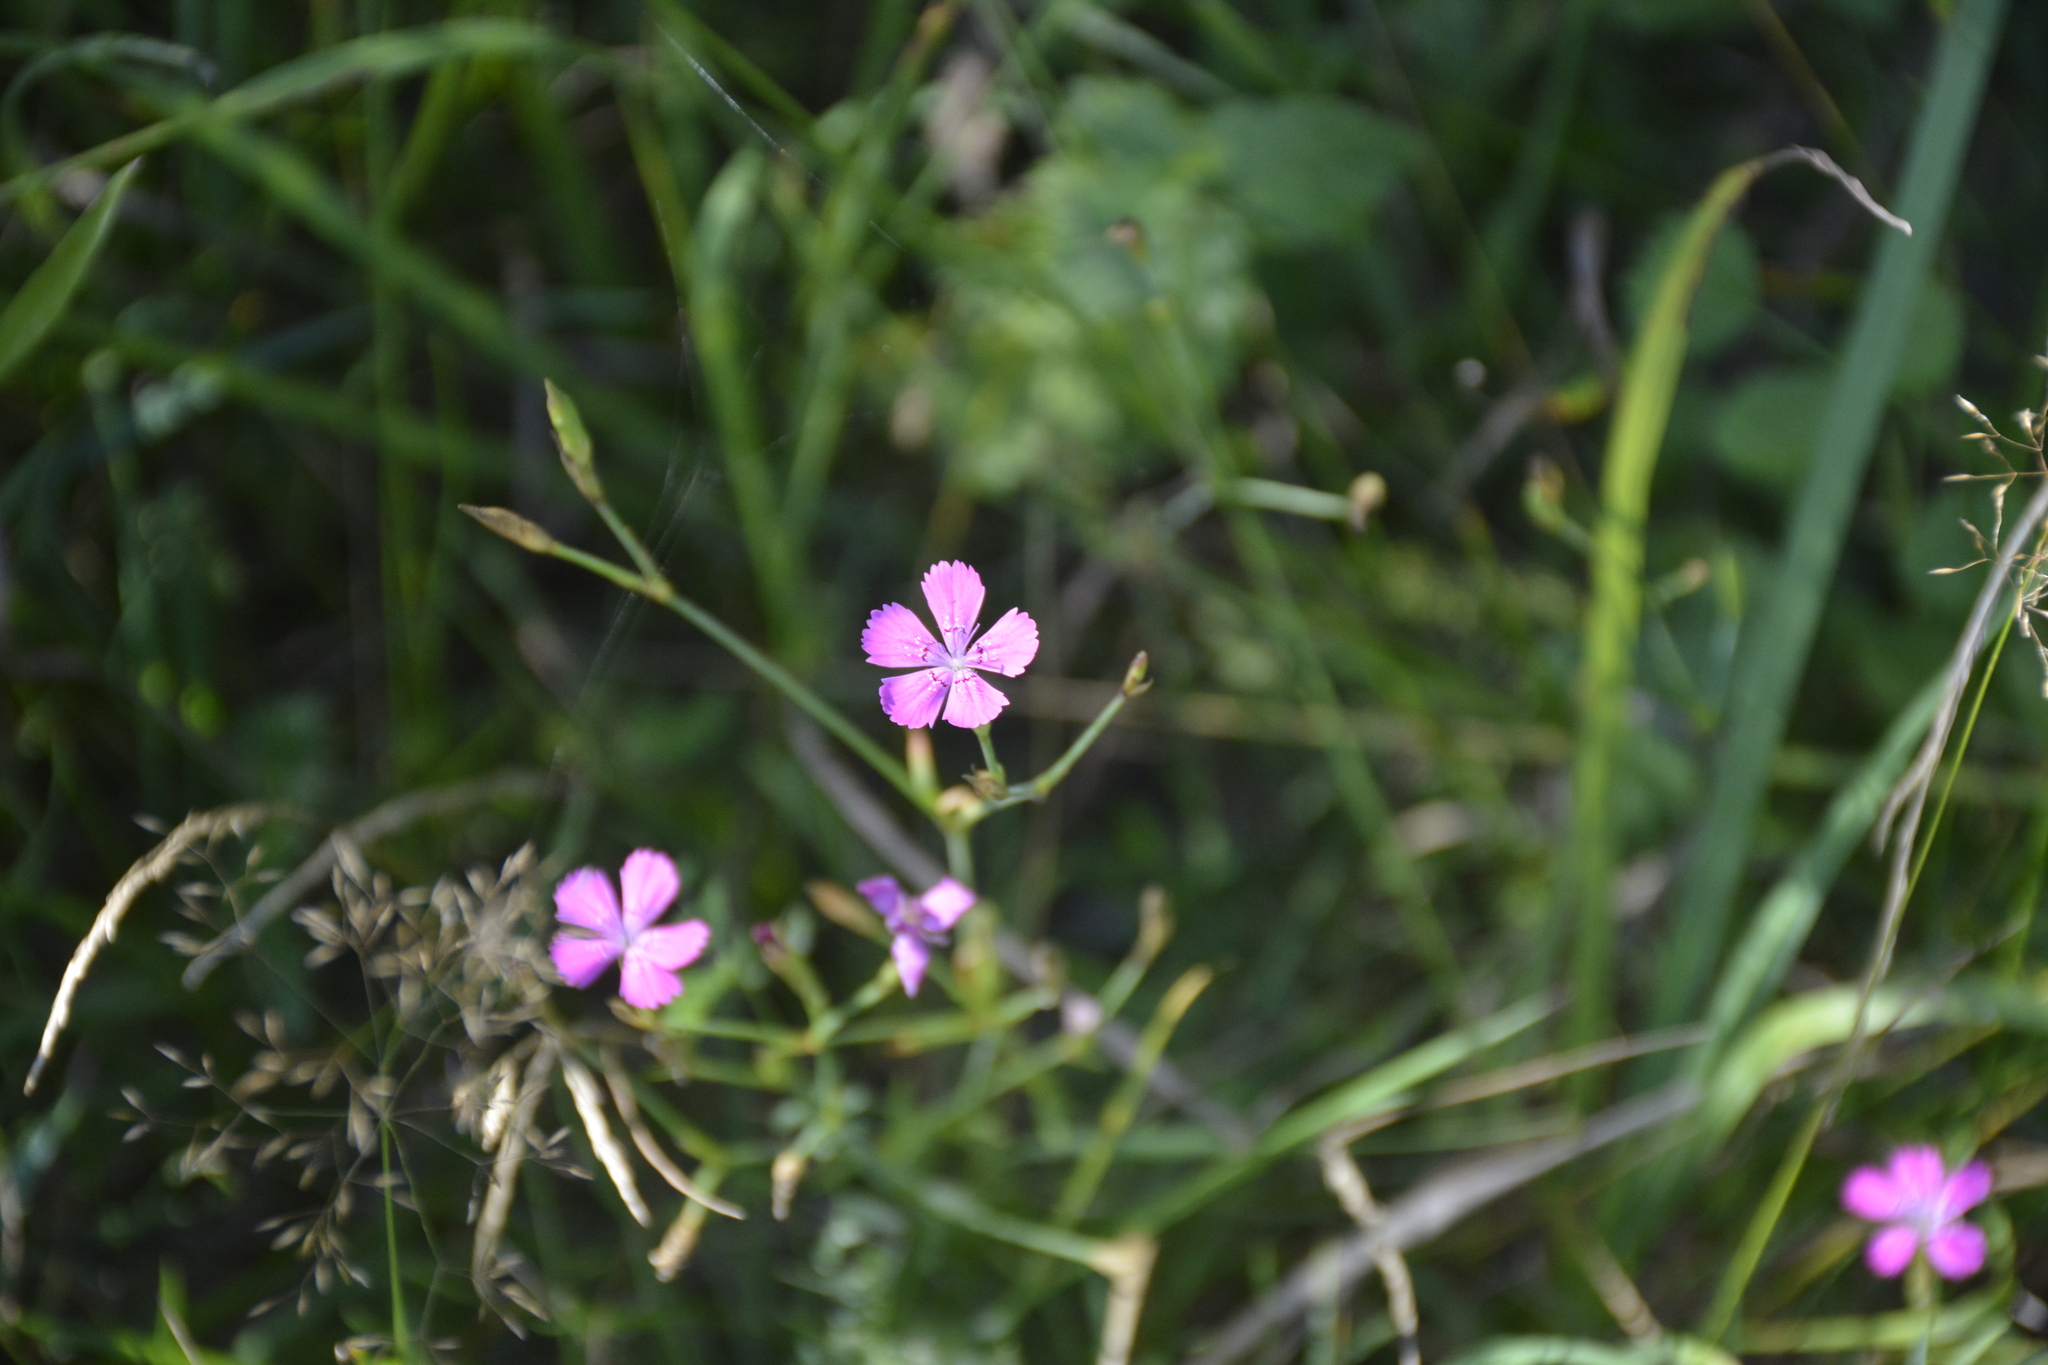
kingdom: Plantae
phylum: Tracheophyta
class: Magnoliopsida
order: Caryophyllales
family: Caryophyllaceae
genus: Dianthus
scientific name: Dianthus deltoides
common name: Maiden pink
